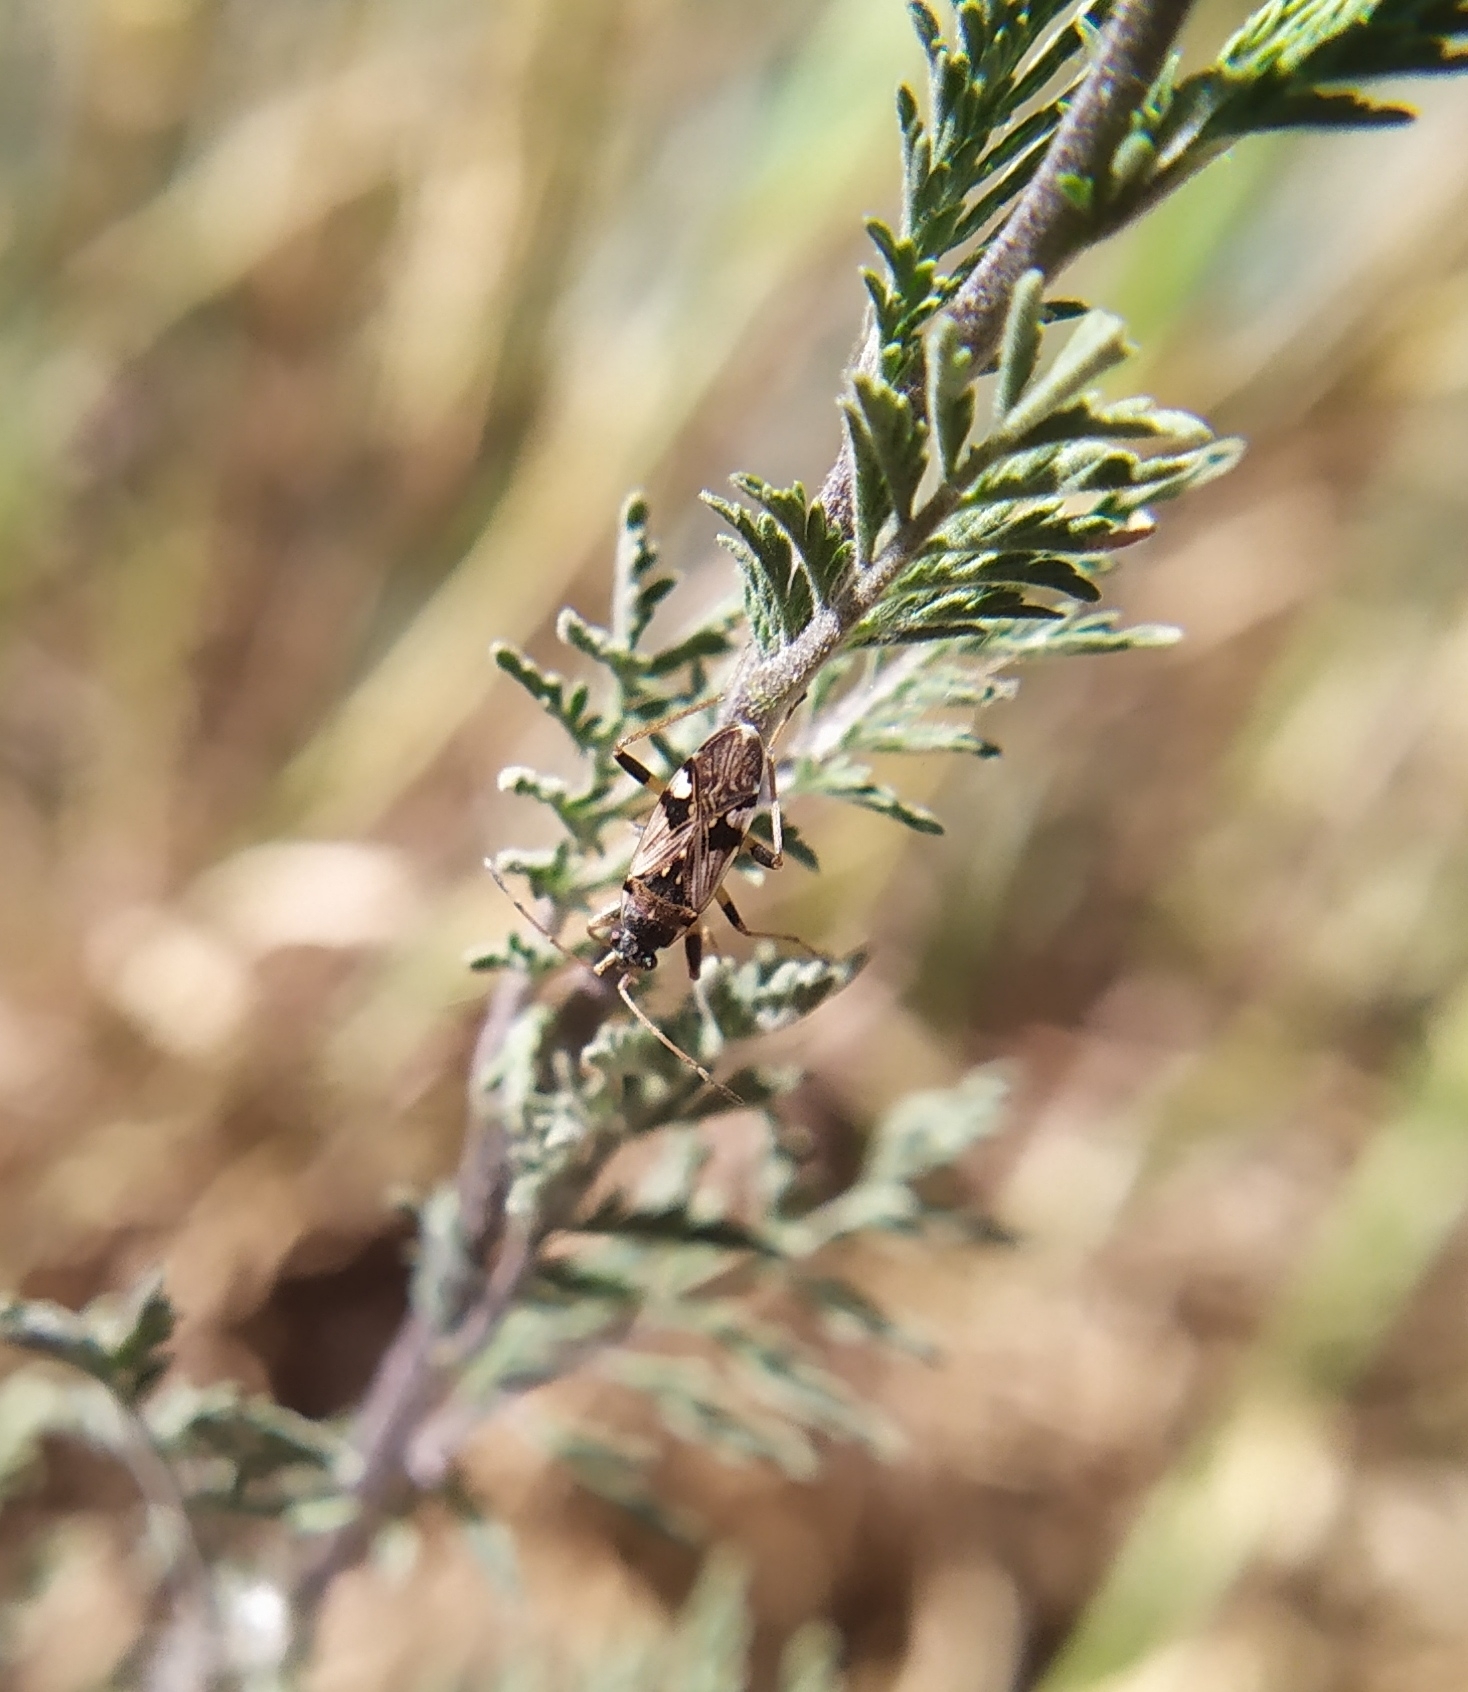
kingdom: Animalia
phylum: Arthropoda
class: Insecta
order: Hemiptera
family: Rhyparochromidae
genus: Beosus
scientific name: Beosus maritimus
